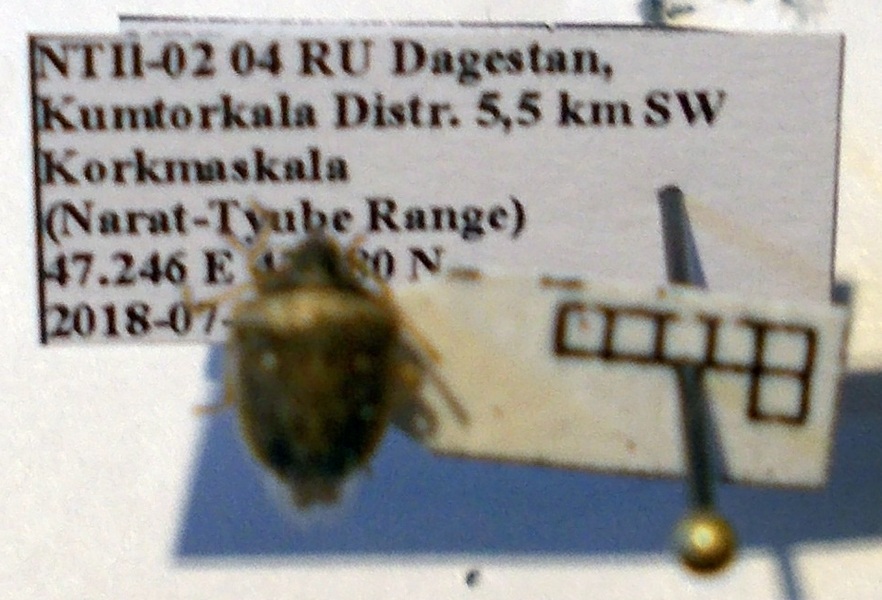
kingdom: Animalia
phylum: Arthropoda
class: Insecta
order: Hemiptera
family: Pentatomidae
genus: Eysarcoris
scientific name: Eysarcoris ventralis
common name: White-spotted stink bug
